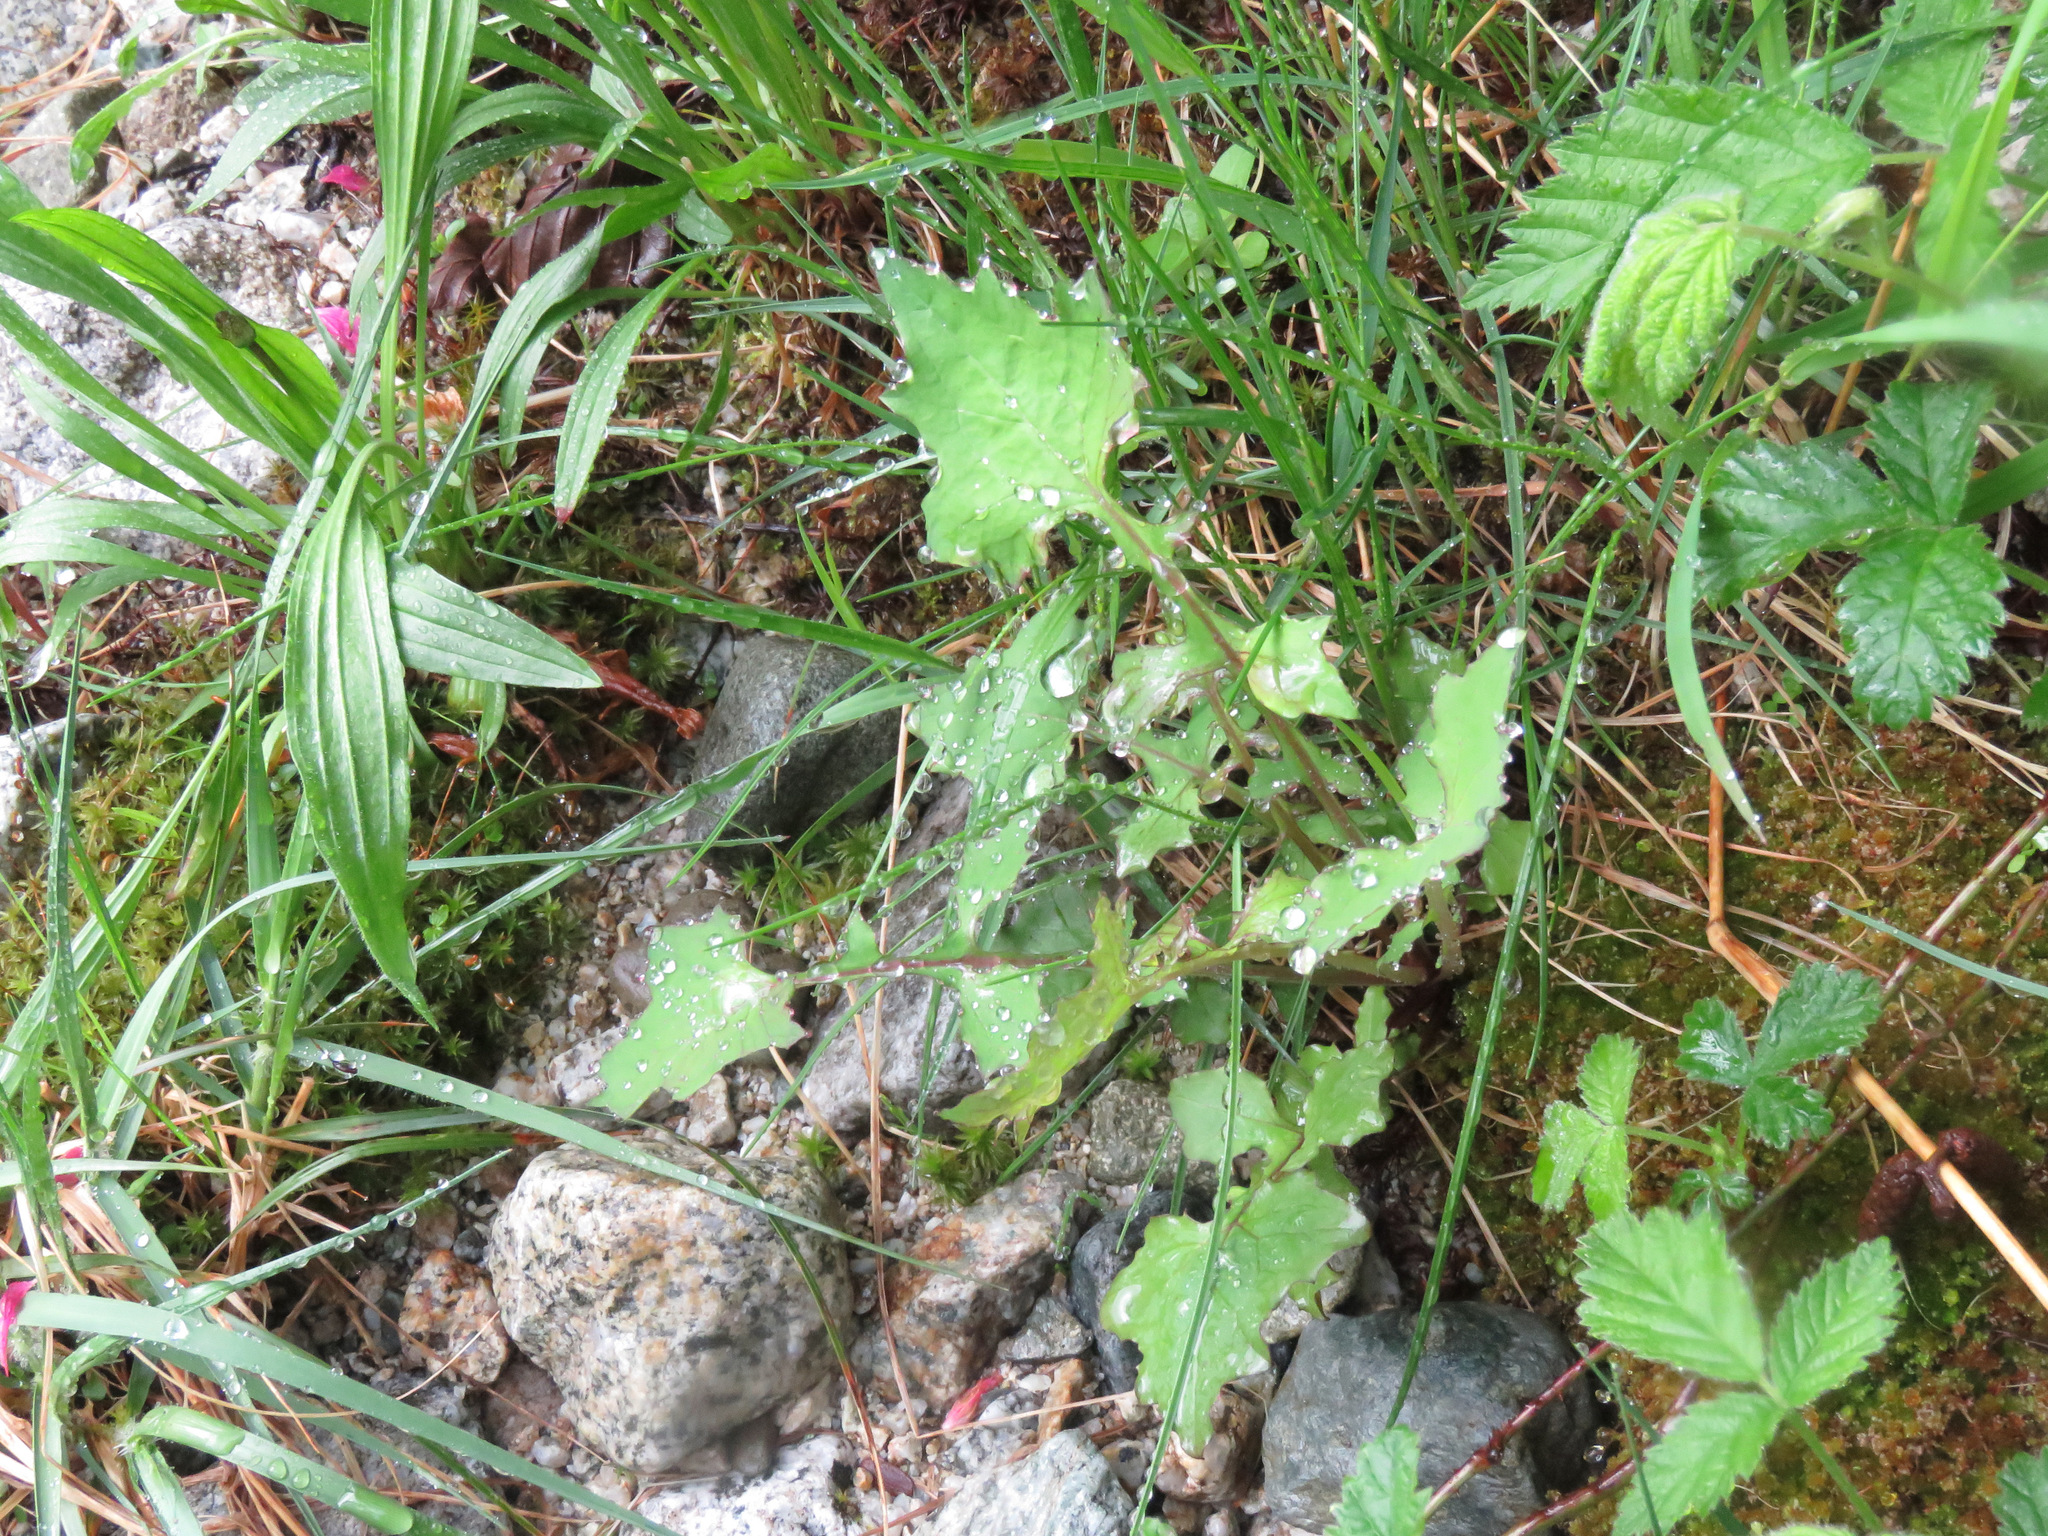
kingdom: Plantae
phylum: Tracheophyta
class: Magnoliopsida
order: Asterales
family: Asteraceae
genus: Mycelis
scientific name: Mycelis muralis
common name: Wall lettuce
